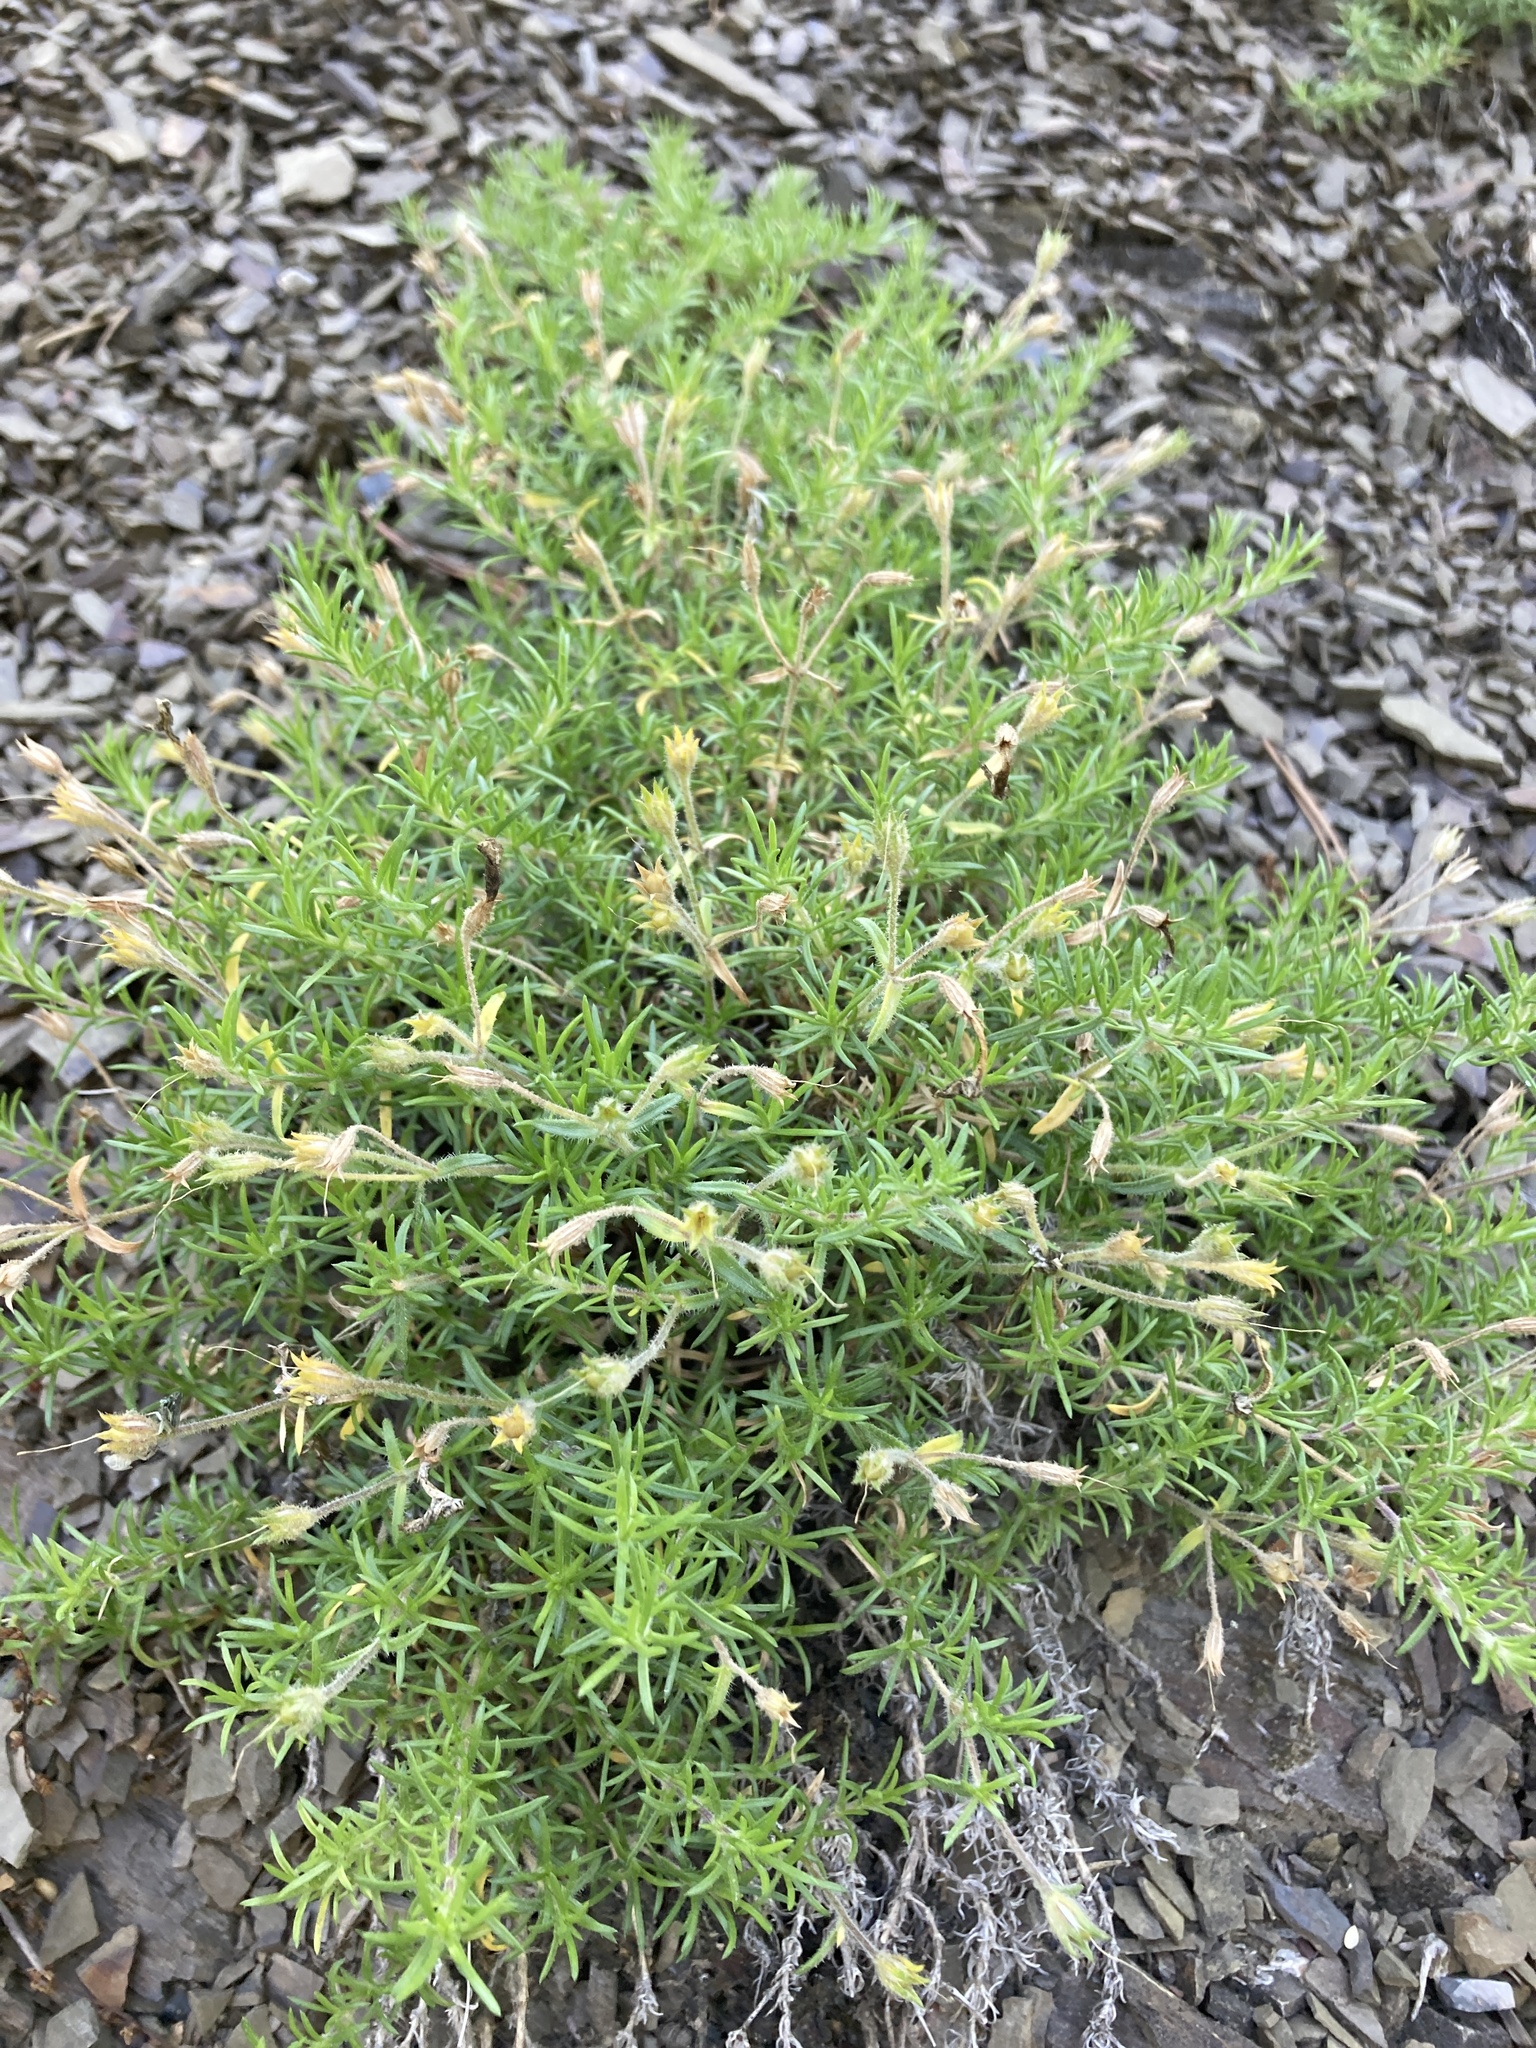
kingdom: Plantae
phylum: Tracheophyta
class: Magnoliopsida
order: Ericales
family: Polemoniaceae
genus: Phlox
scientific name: Phlox subulata
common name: Moss phlox
